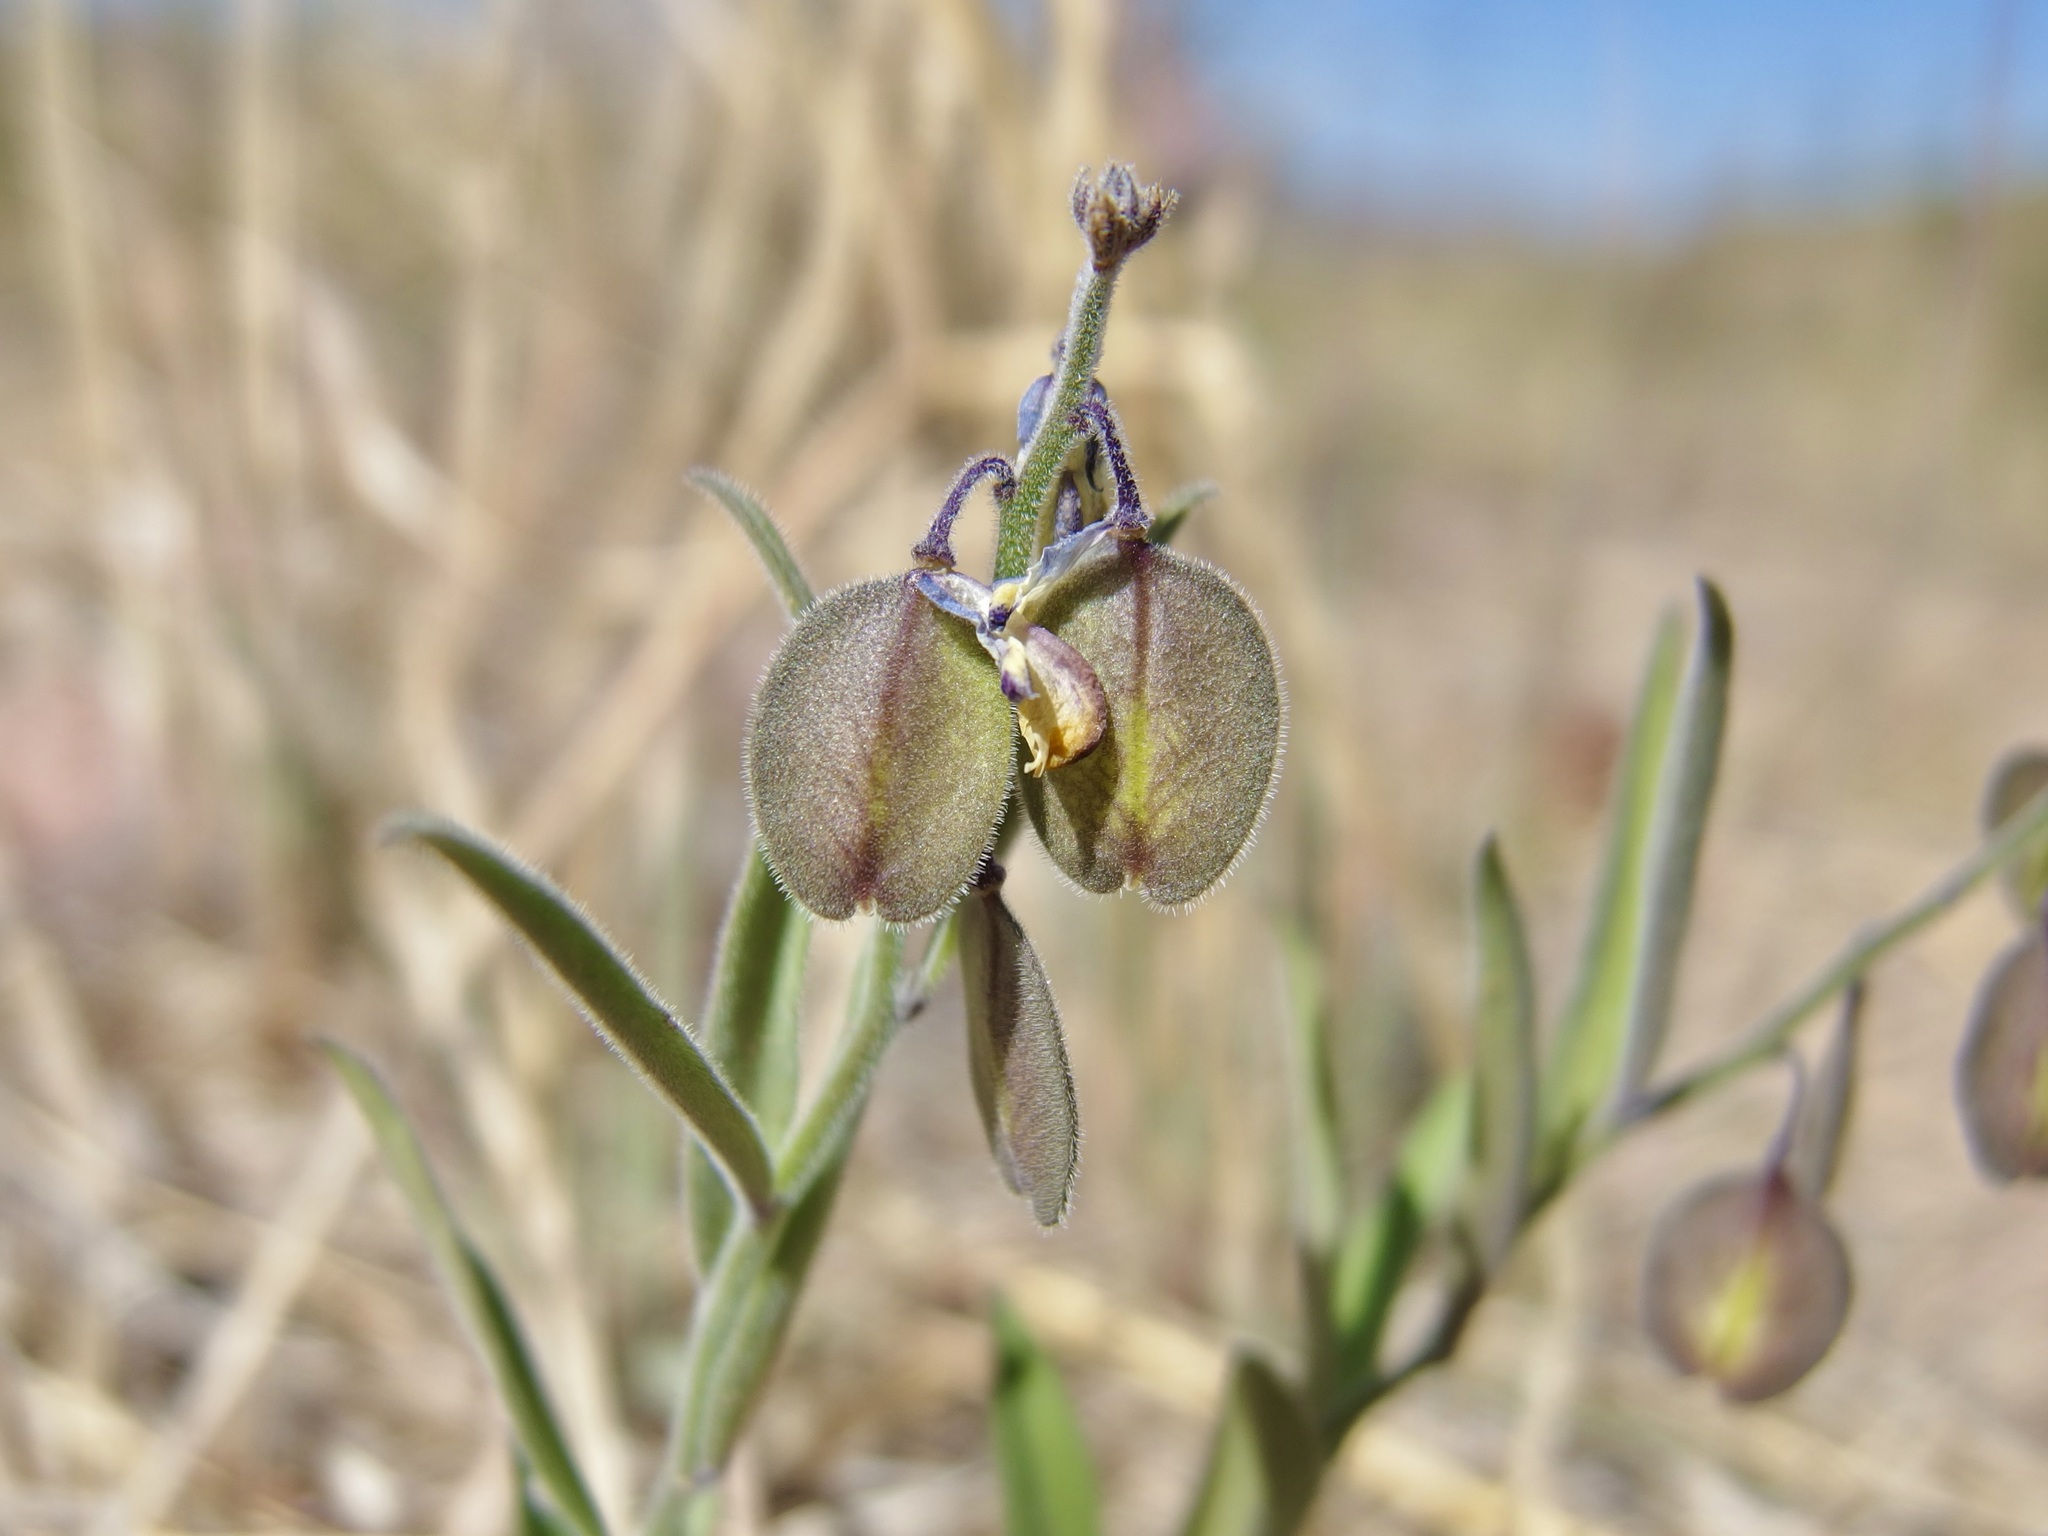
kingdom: Plantae
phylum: Tracheophyta
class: Magnoliopsida
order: Fabales
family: Polygalaceae
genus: Hebecarpa
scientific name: Hebecarpa obscura
